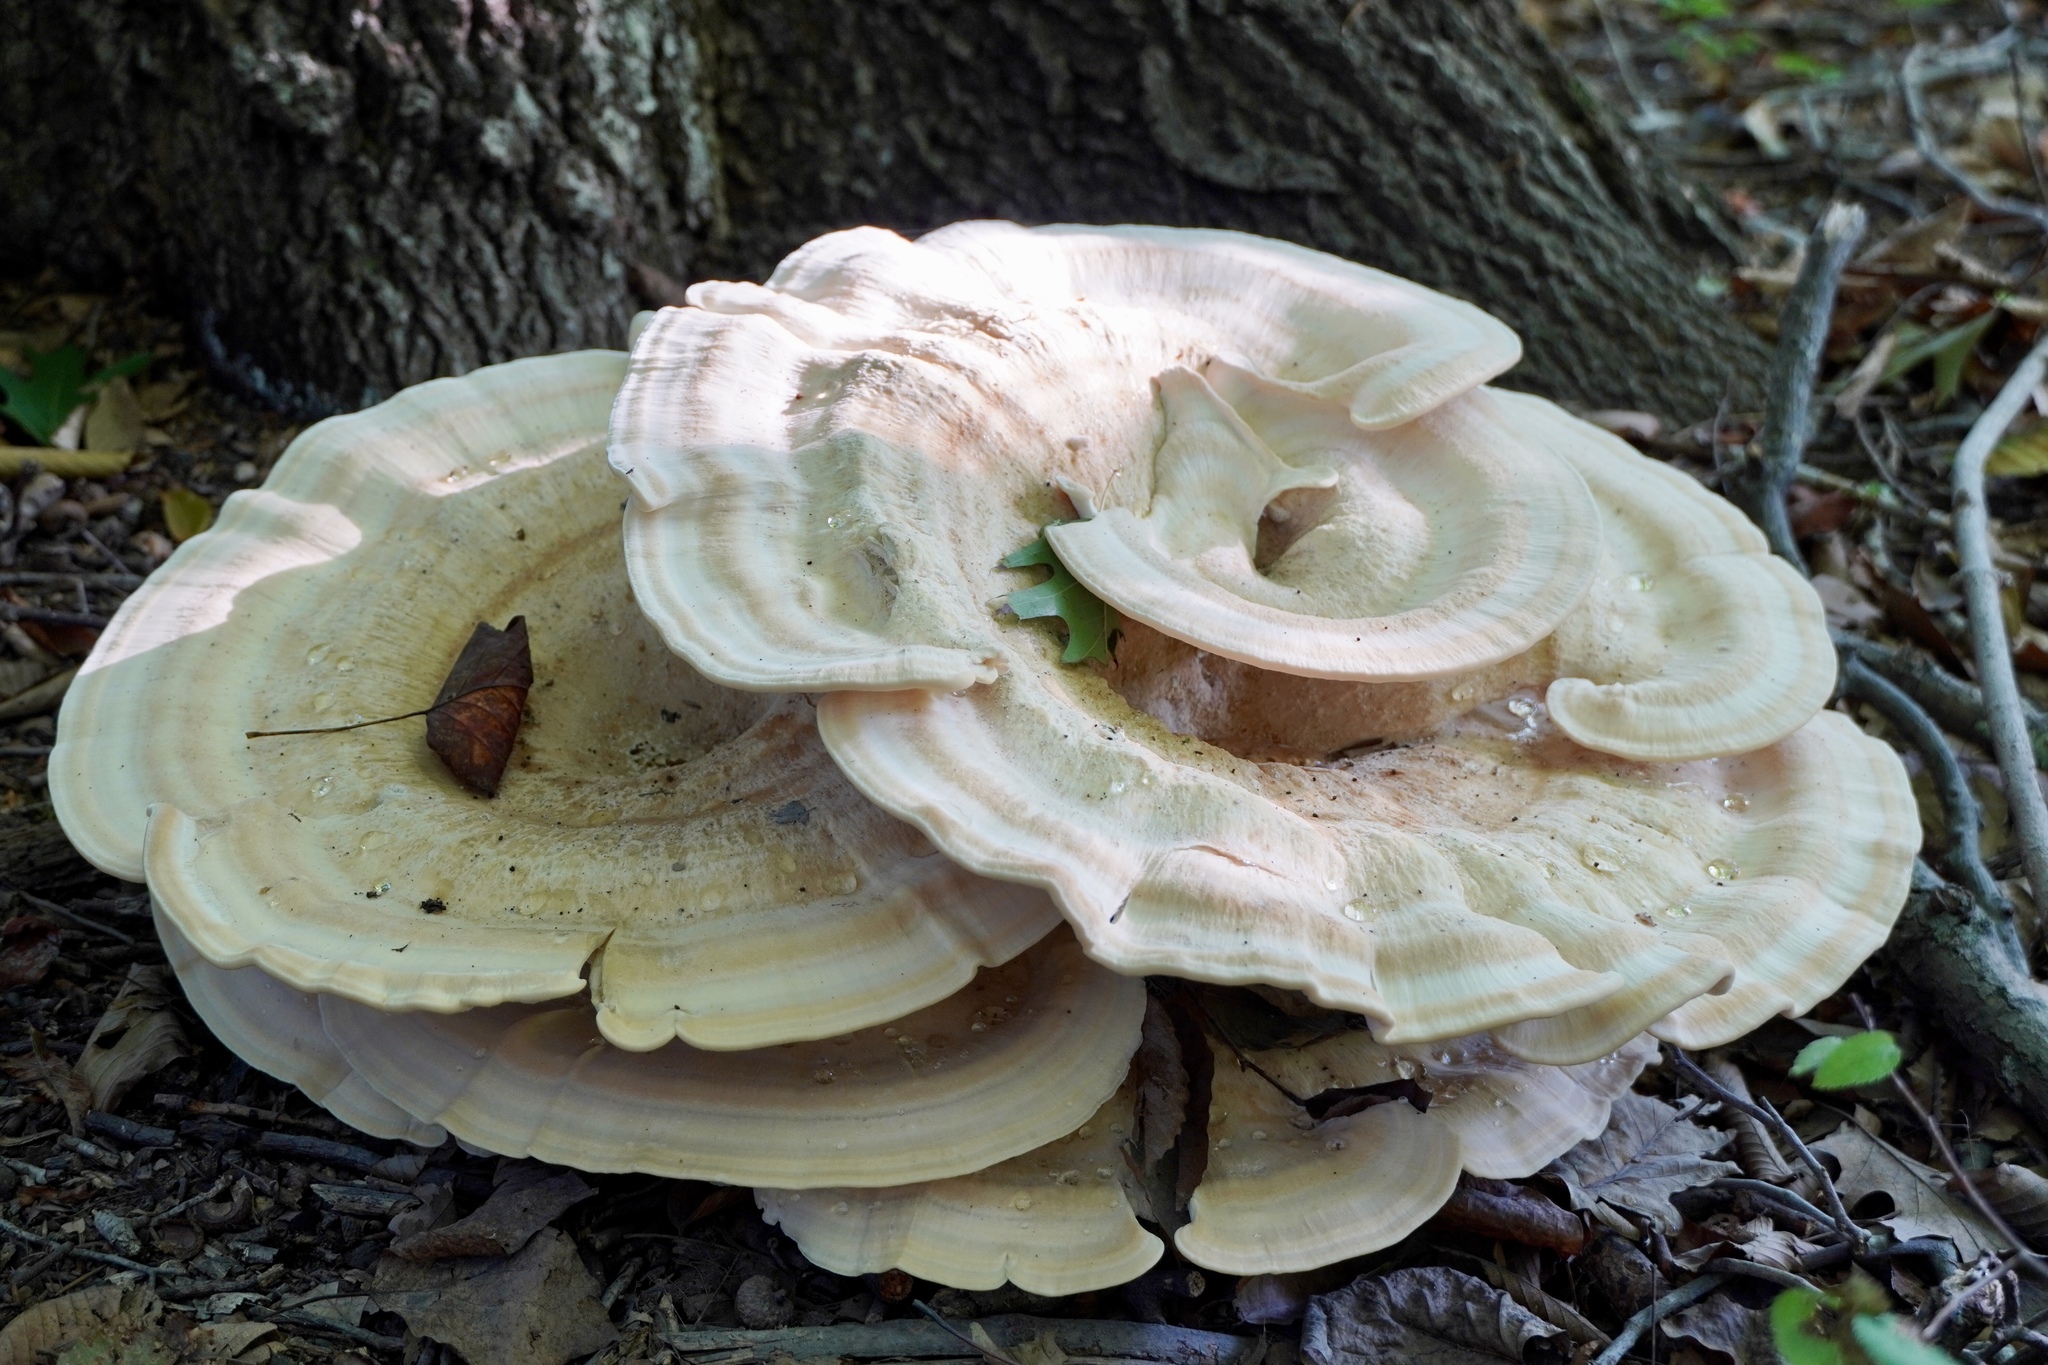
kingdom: Fungi
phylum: Basidiomycota
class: Agaricomycetes
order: Russulales
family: Bondarzewiaceae
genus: Bondarzewia
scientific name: Bondarzewia berkeleyi
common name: Berkeley's polypore
